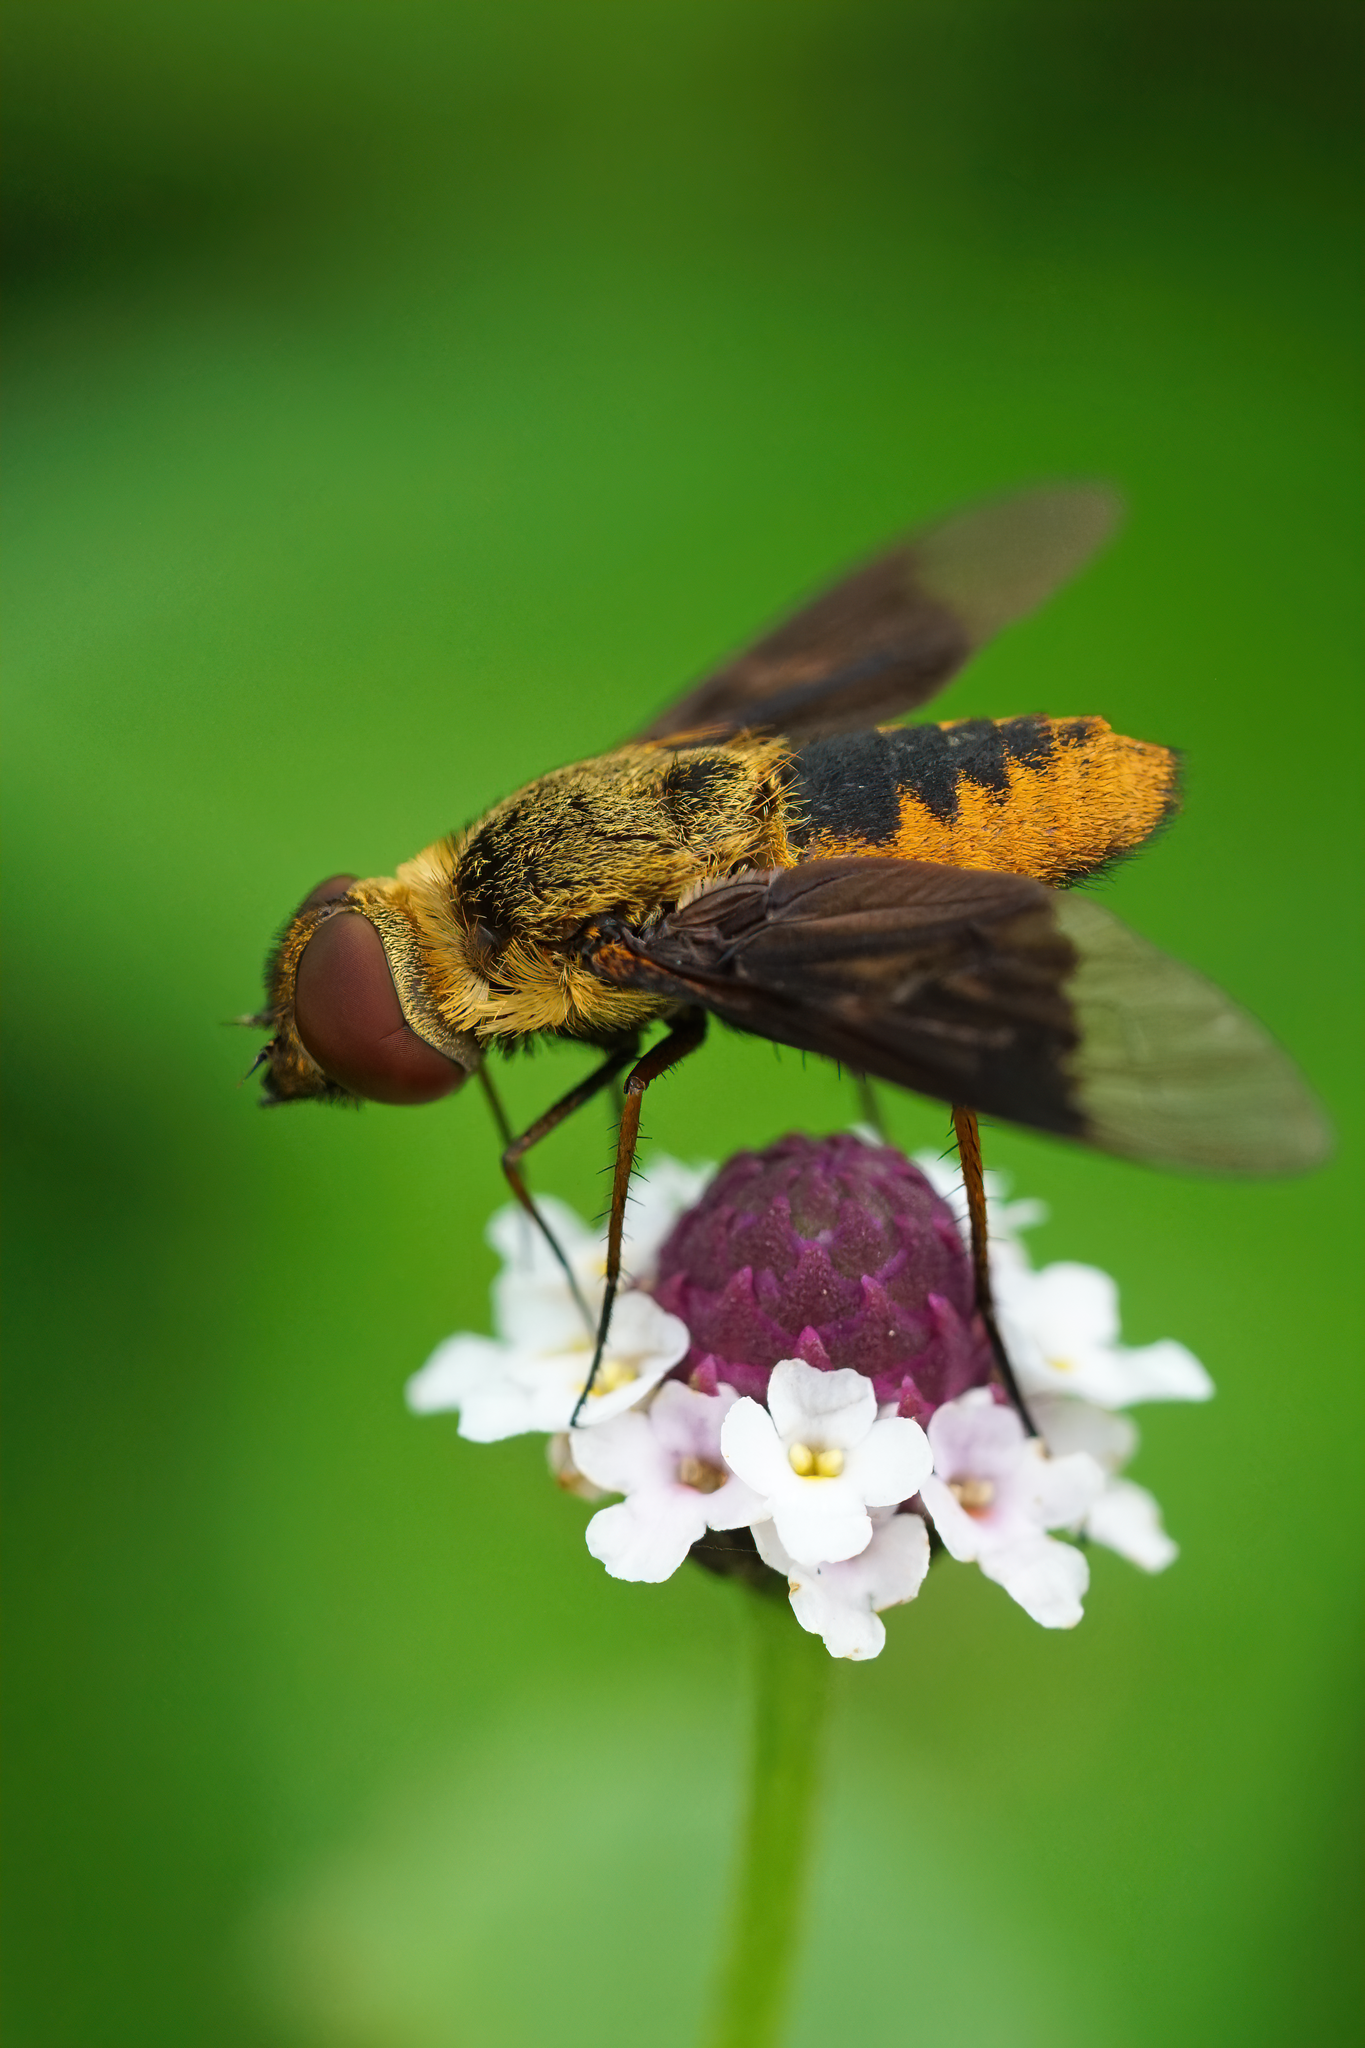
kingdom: Animalia
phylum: Arthropoda
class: Insecta
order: Diptera
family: Bombyliidae
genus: Chrysanthrax
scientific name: Chrysanthrax cypris
